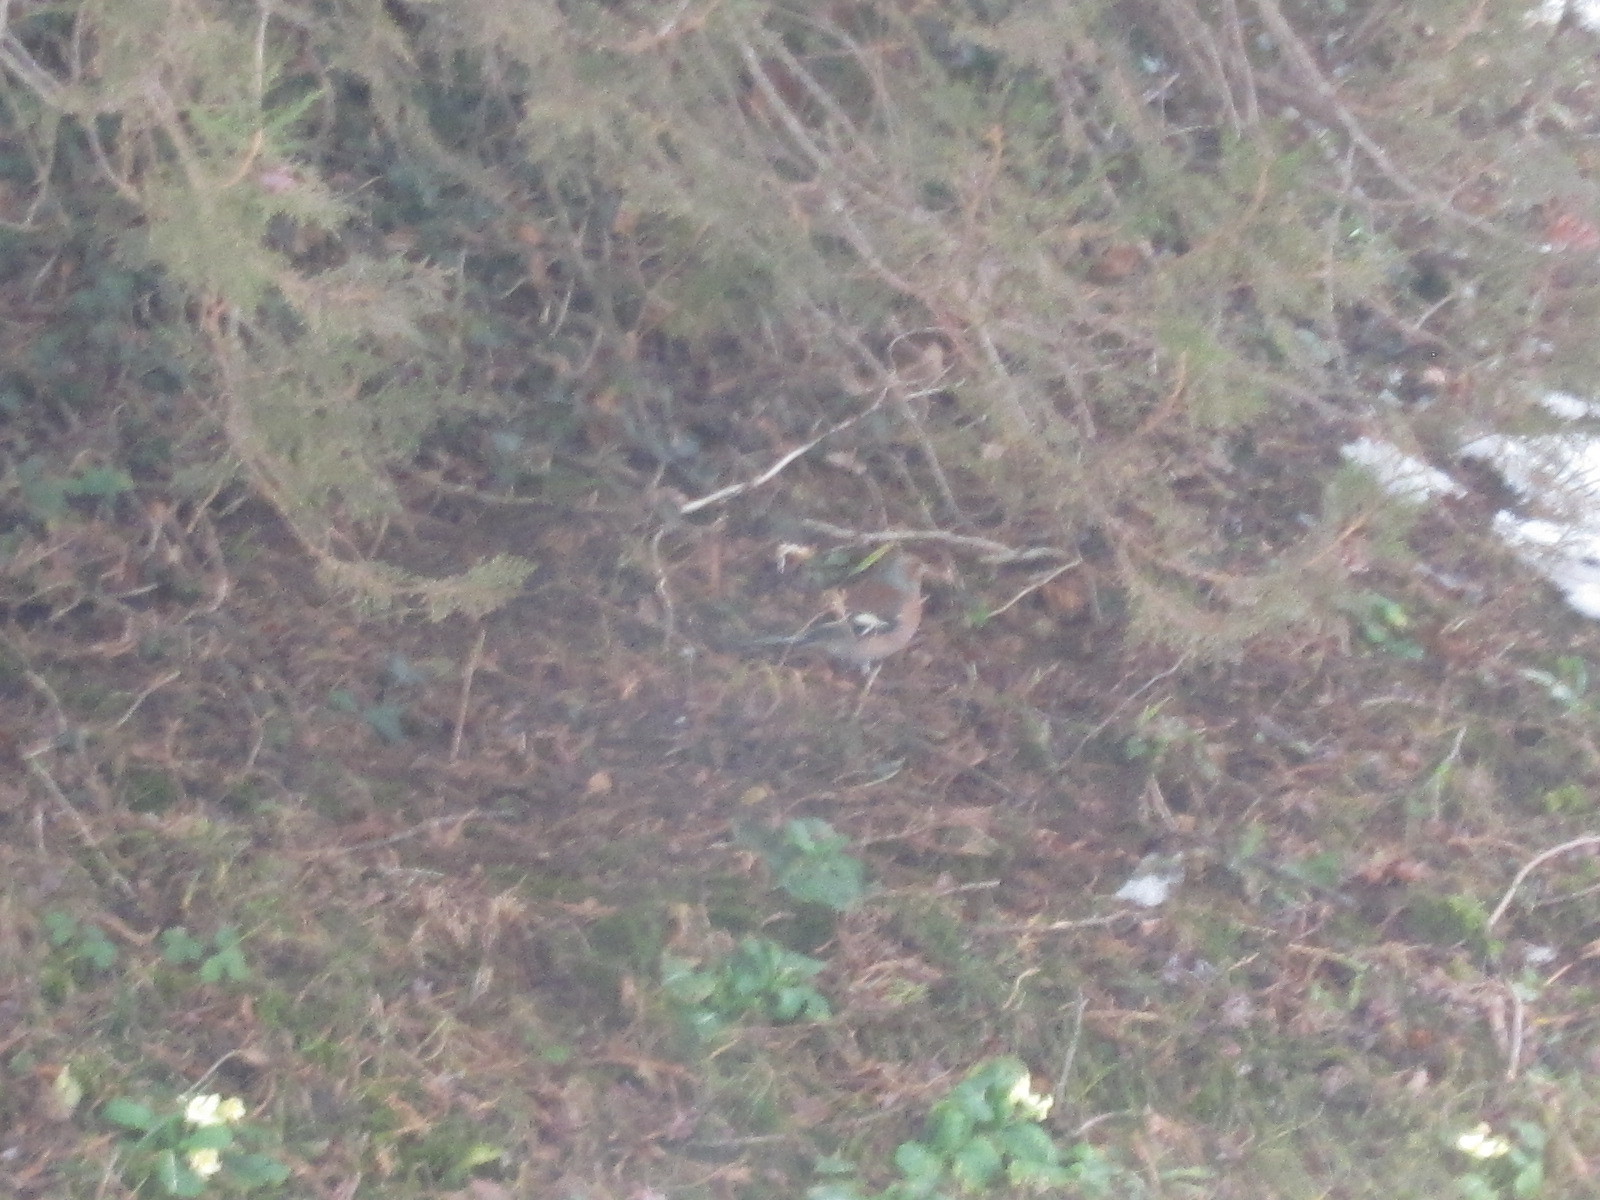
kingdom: Animalia
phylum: Chordata
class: Aves
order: Passeriformes
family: Fringillidae
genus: Fringilla
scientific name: Fringilla coelebs
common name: Common chaffinch
